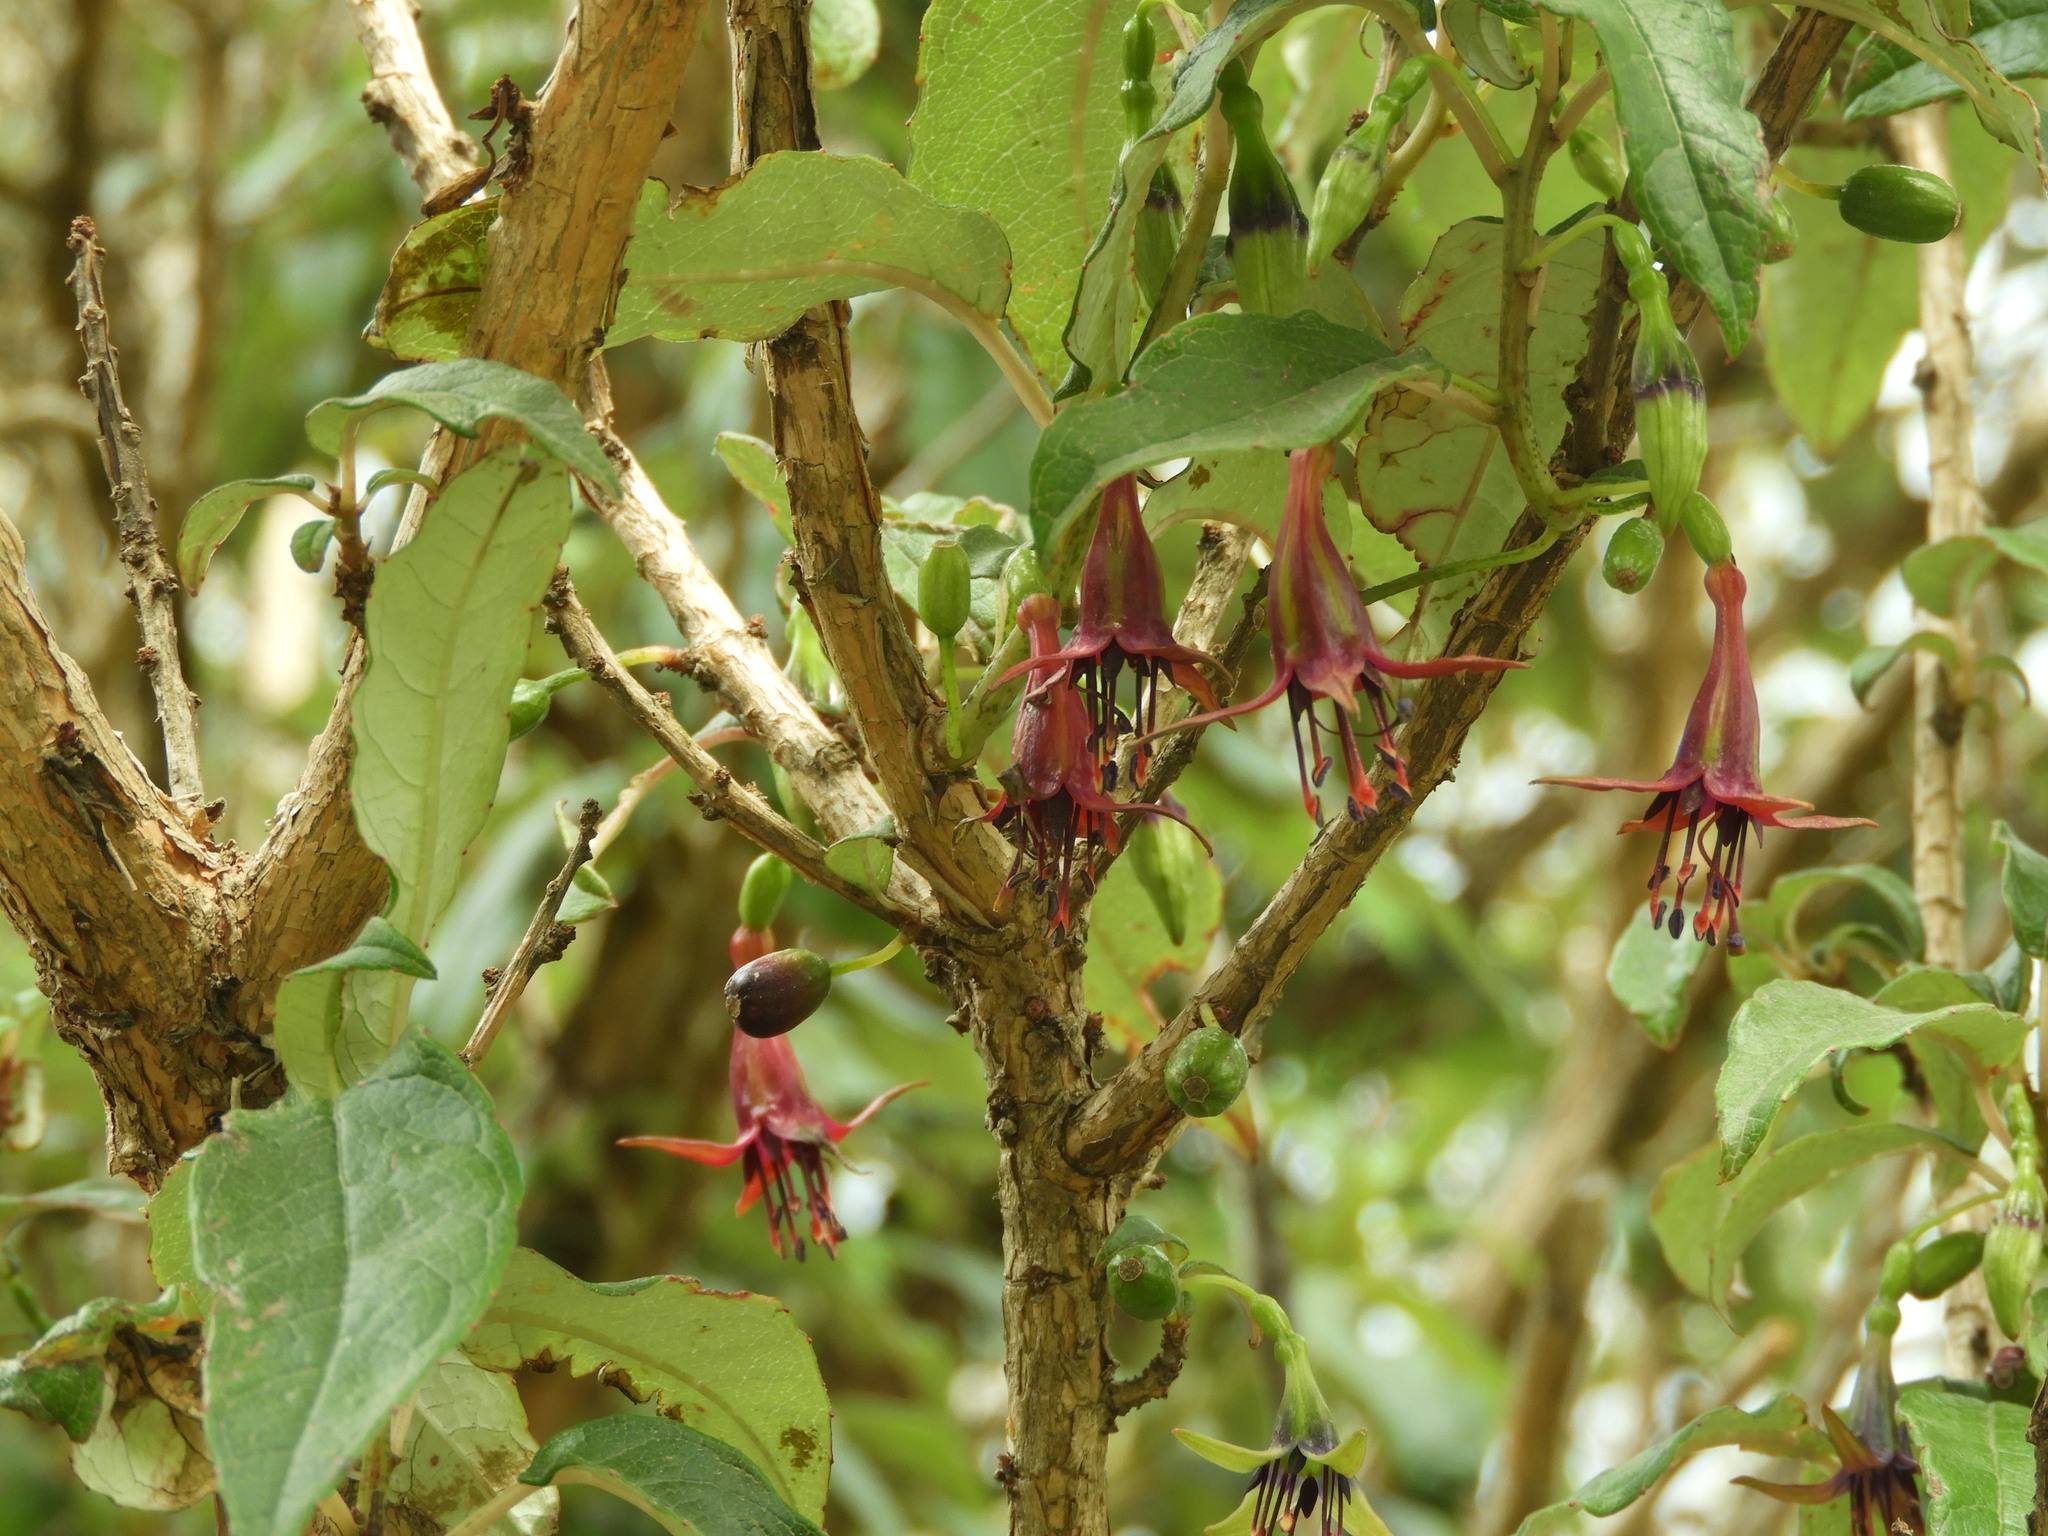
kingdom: Plantae
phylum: Tracheophyta
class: Magnoliopsida
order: Myrtales
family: Onagraceae
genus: Fuchsia
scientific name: Fuchsia excorticata
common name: Tree fuchsia
